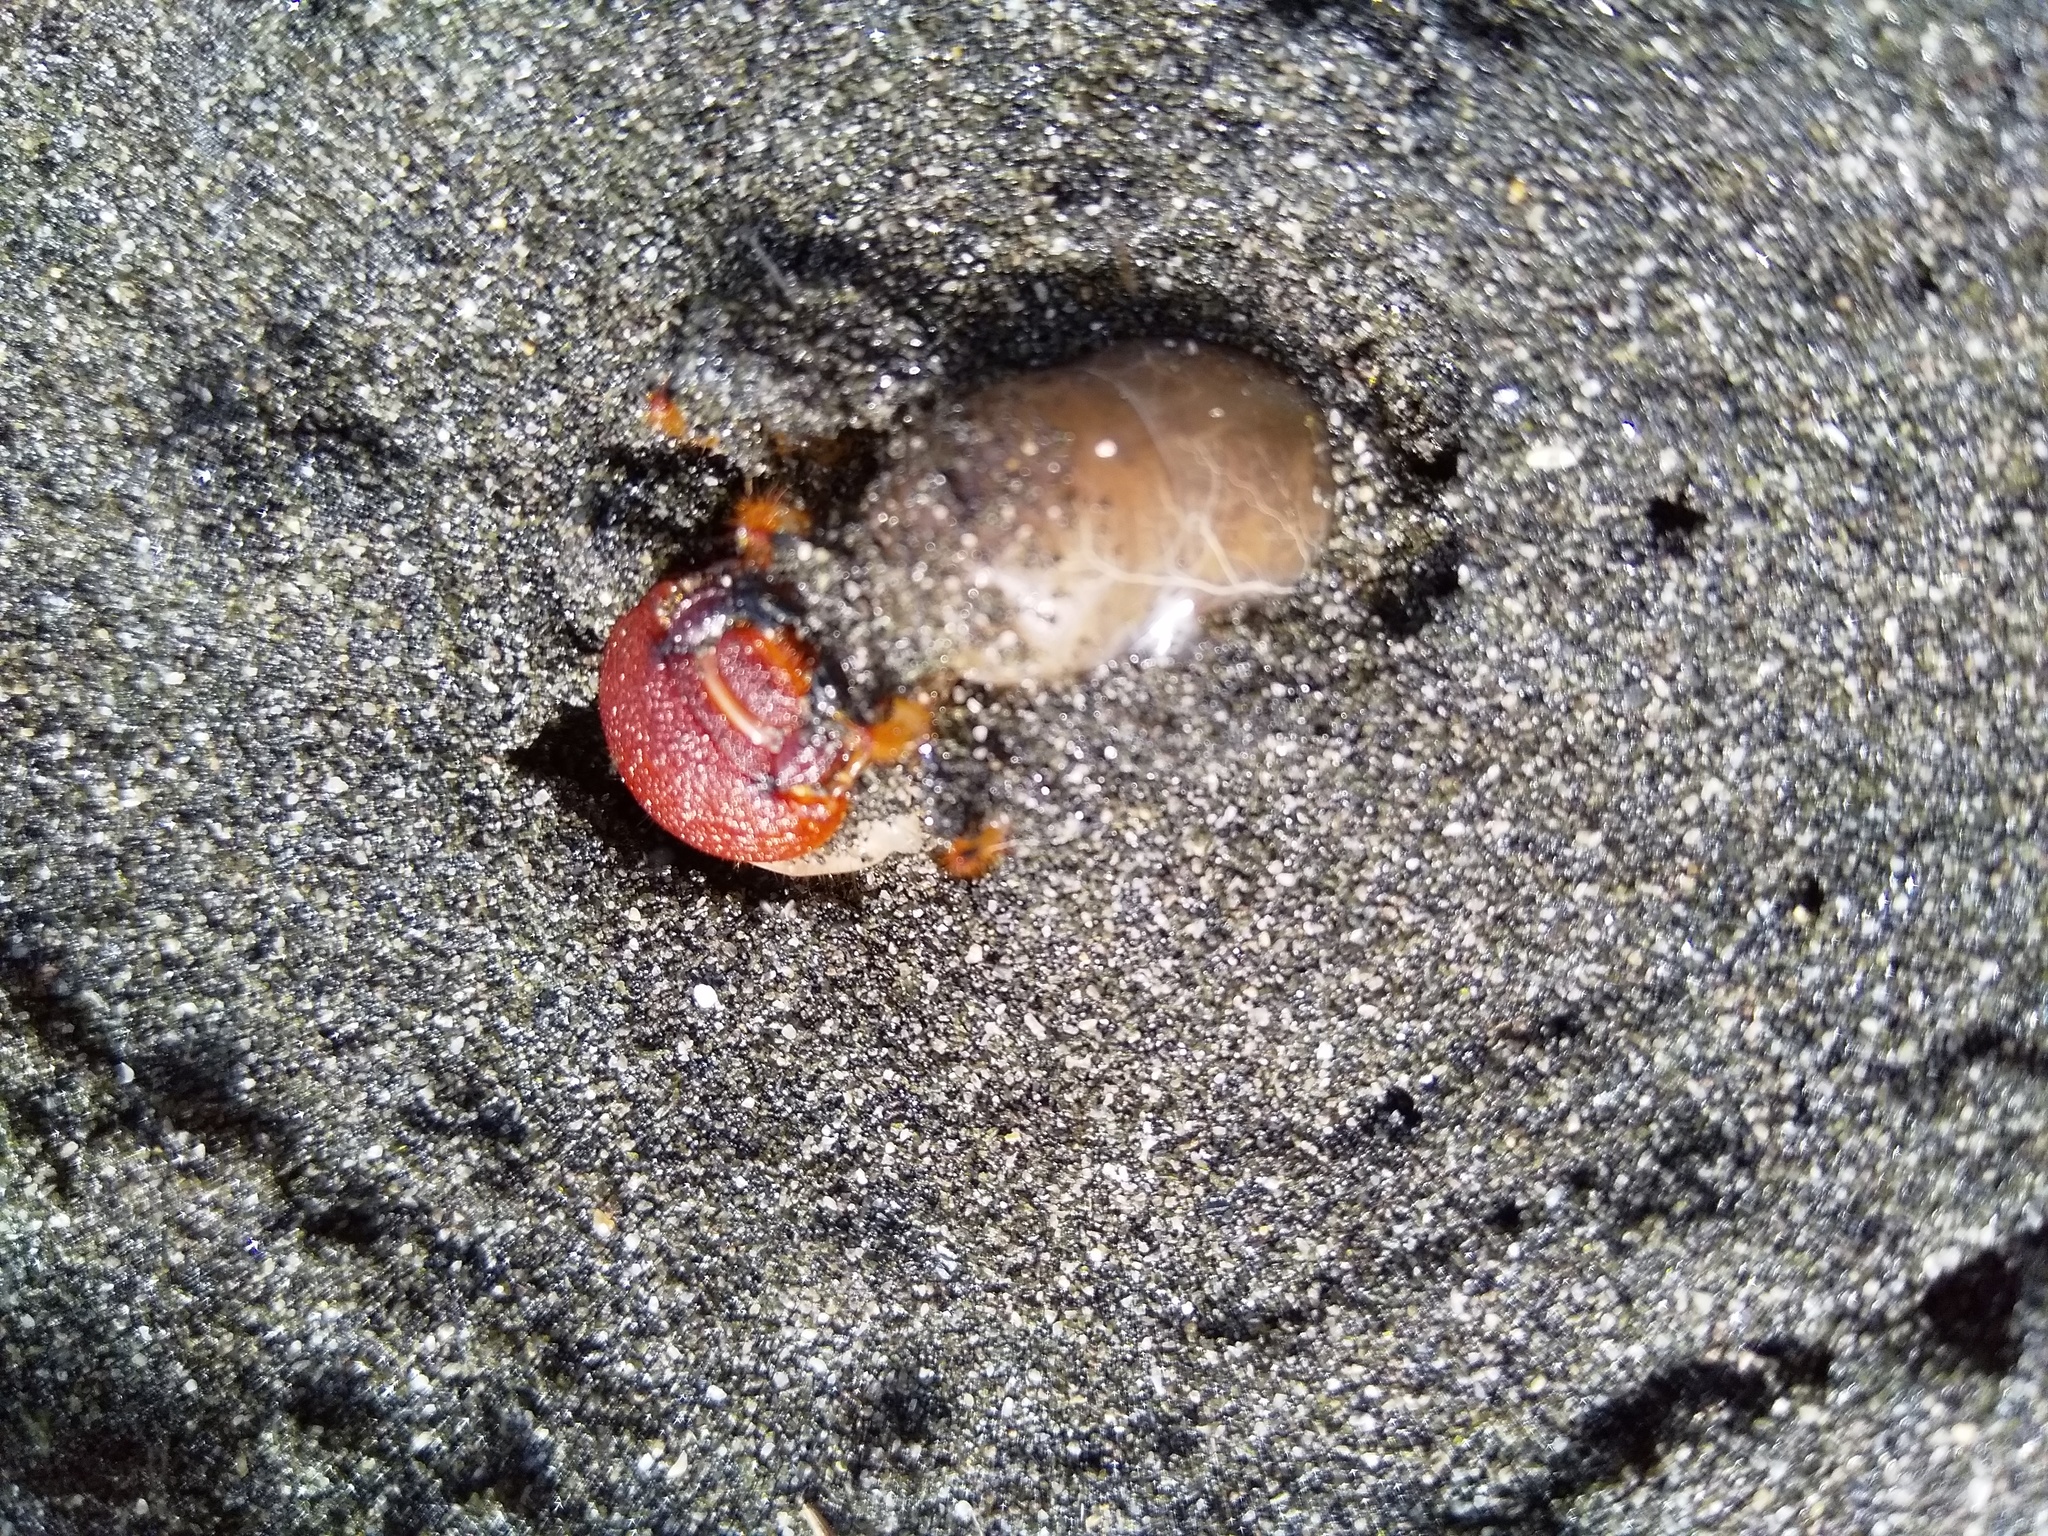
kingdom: Animalia
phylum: Arthropoda
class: Insecta
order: Coleoptera
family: Scarabaeidae
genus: Pericoptus
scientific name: Pericoptus truncatus
